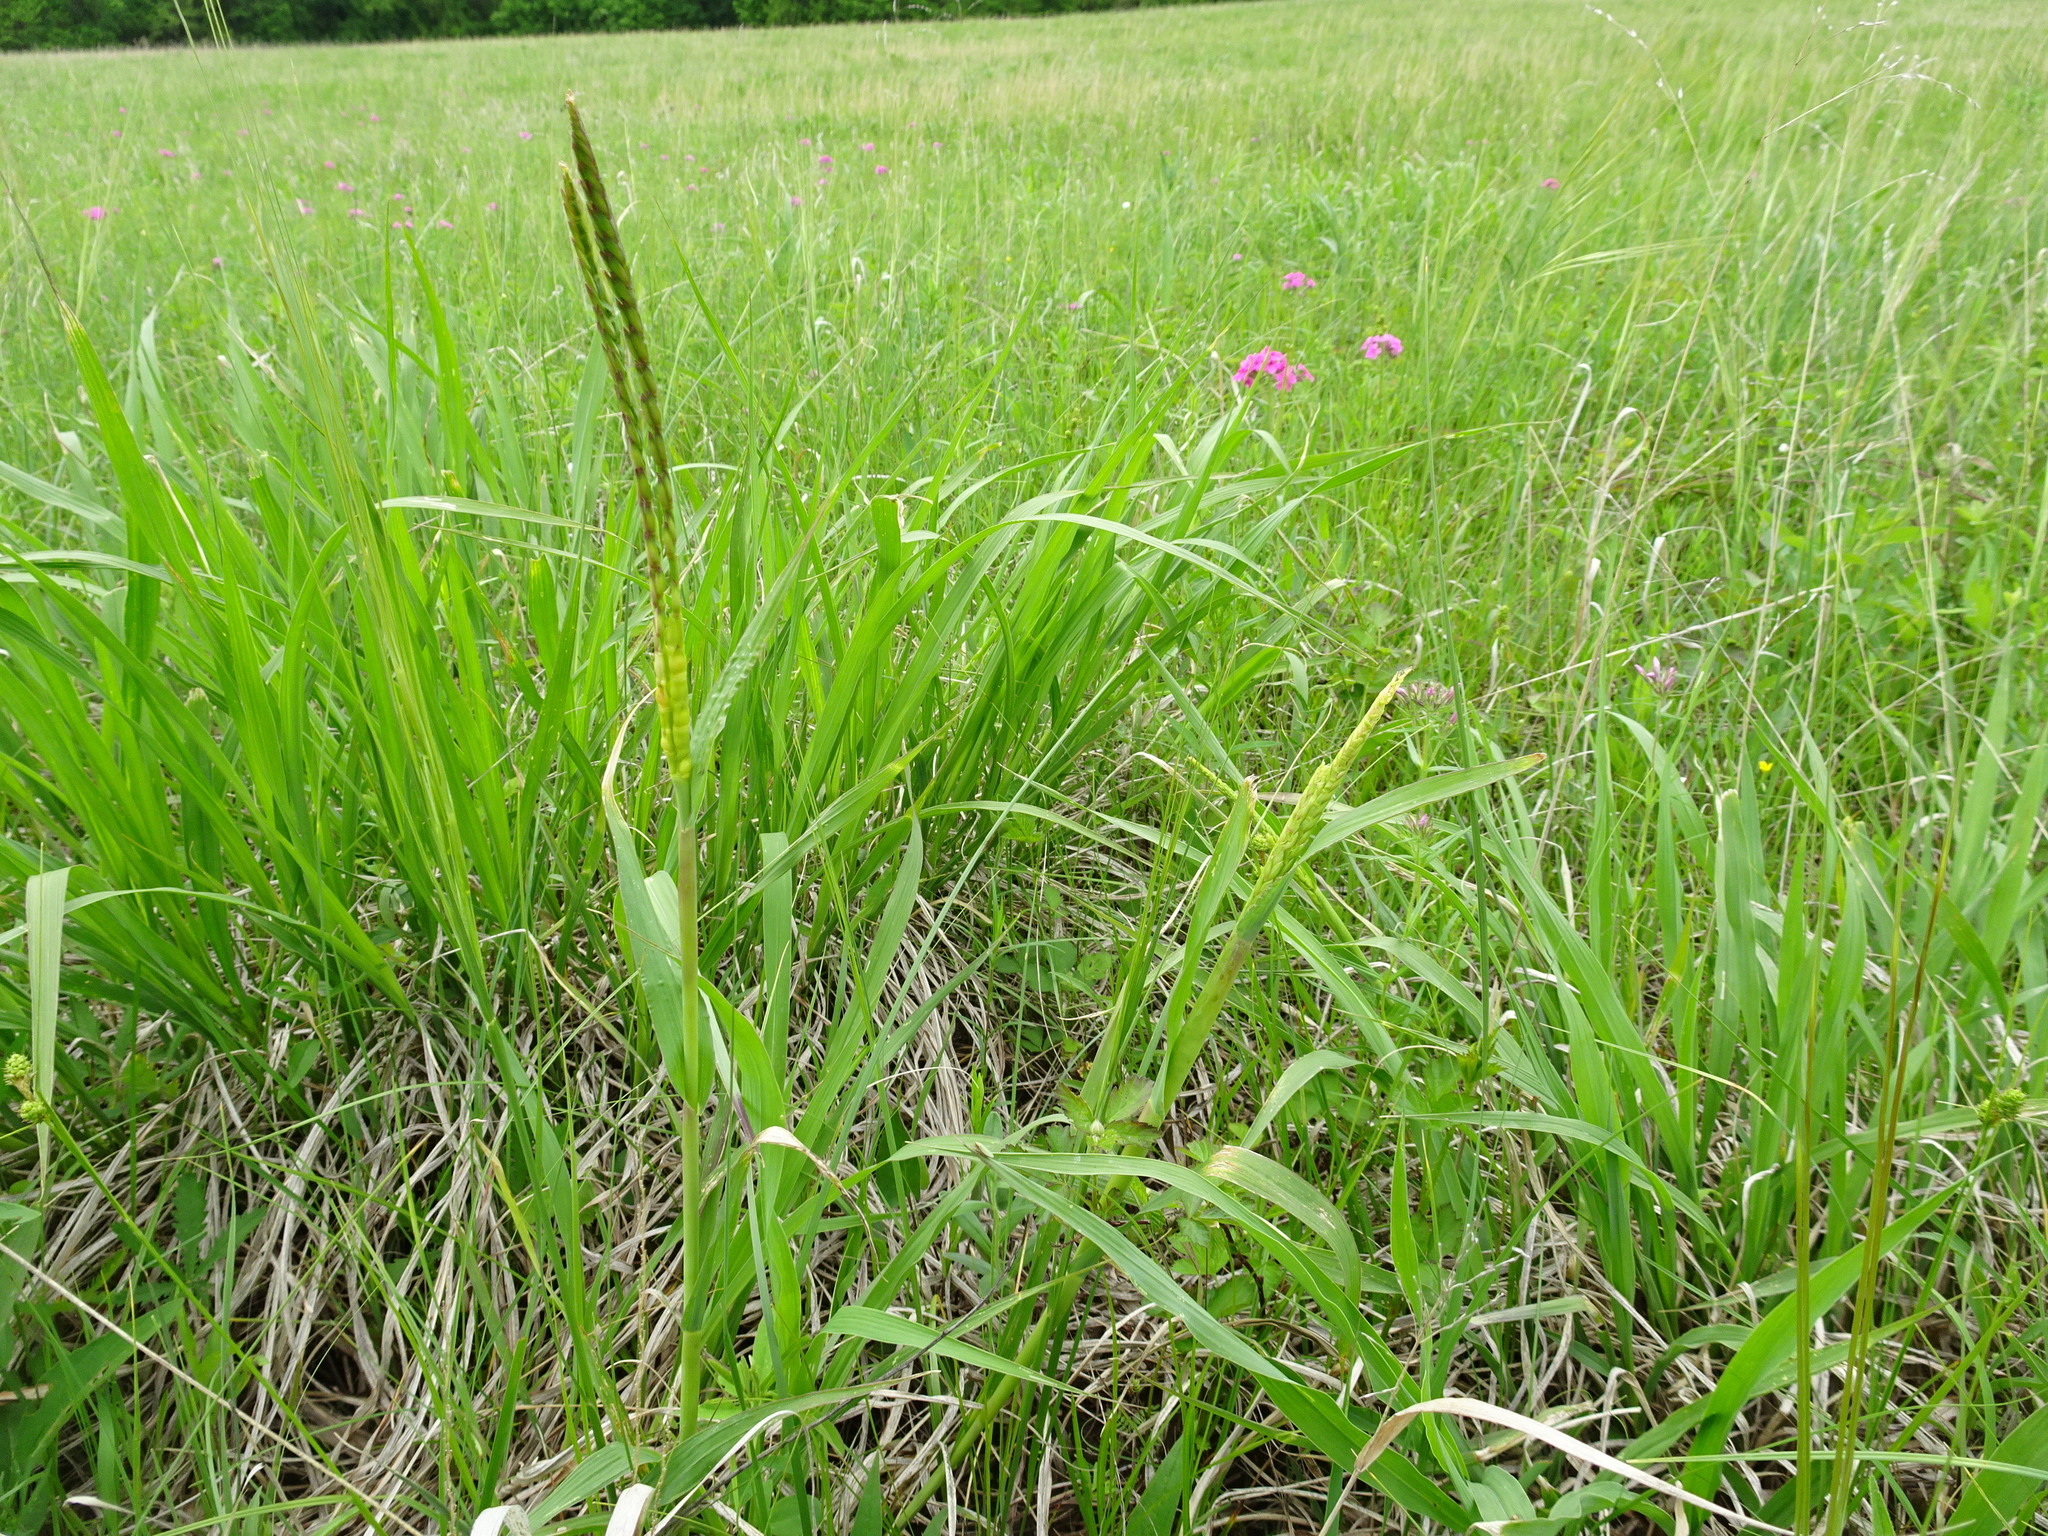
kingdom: Plantae
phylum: Tracheophyta
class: Liliopsida
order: Poales
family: Poaceae
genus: Tripsacum
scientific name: Tripsacum dactyloides
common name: Buffalo-grass
